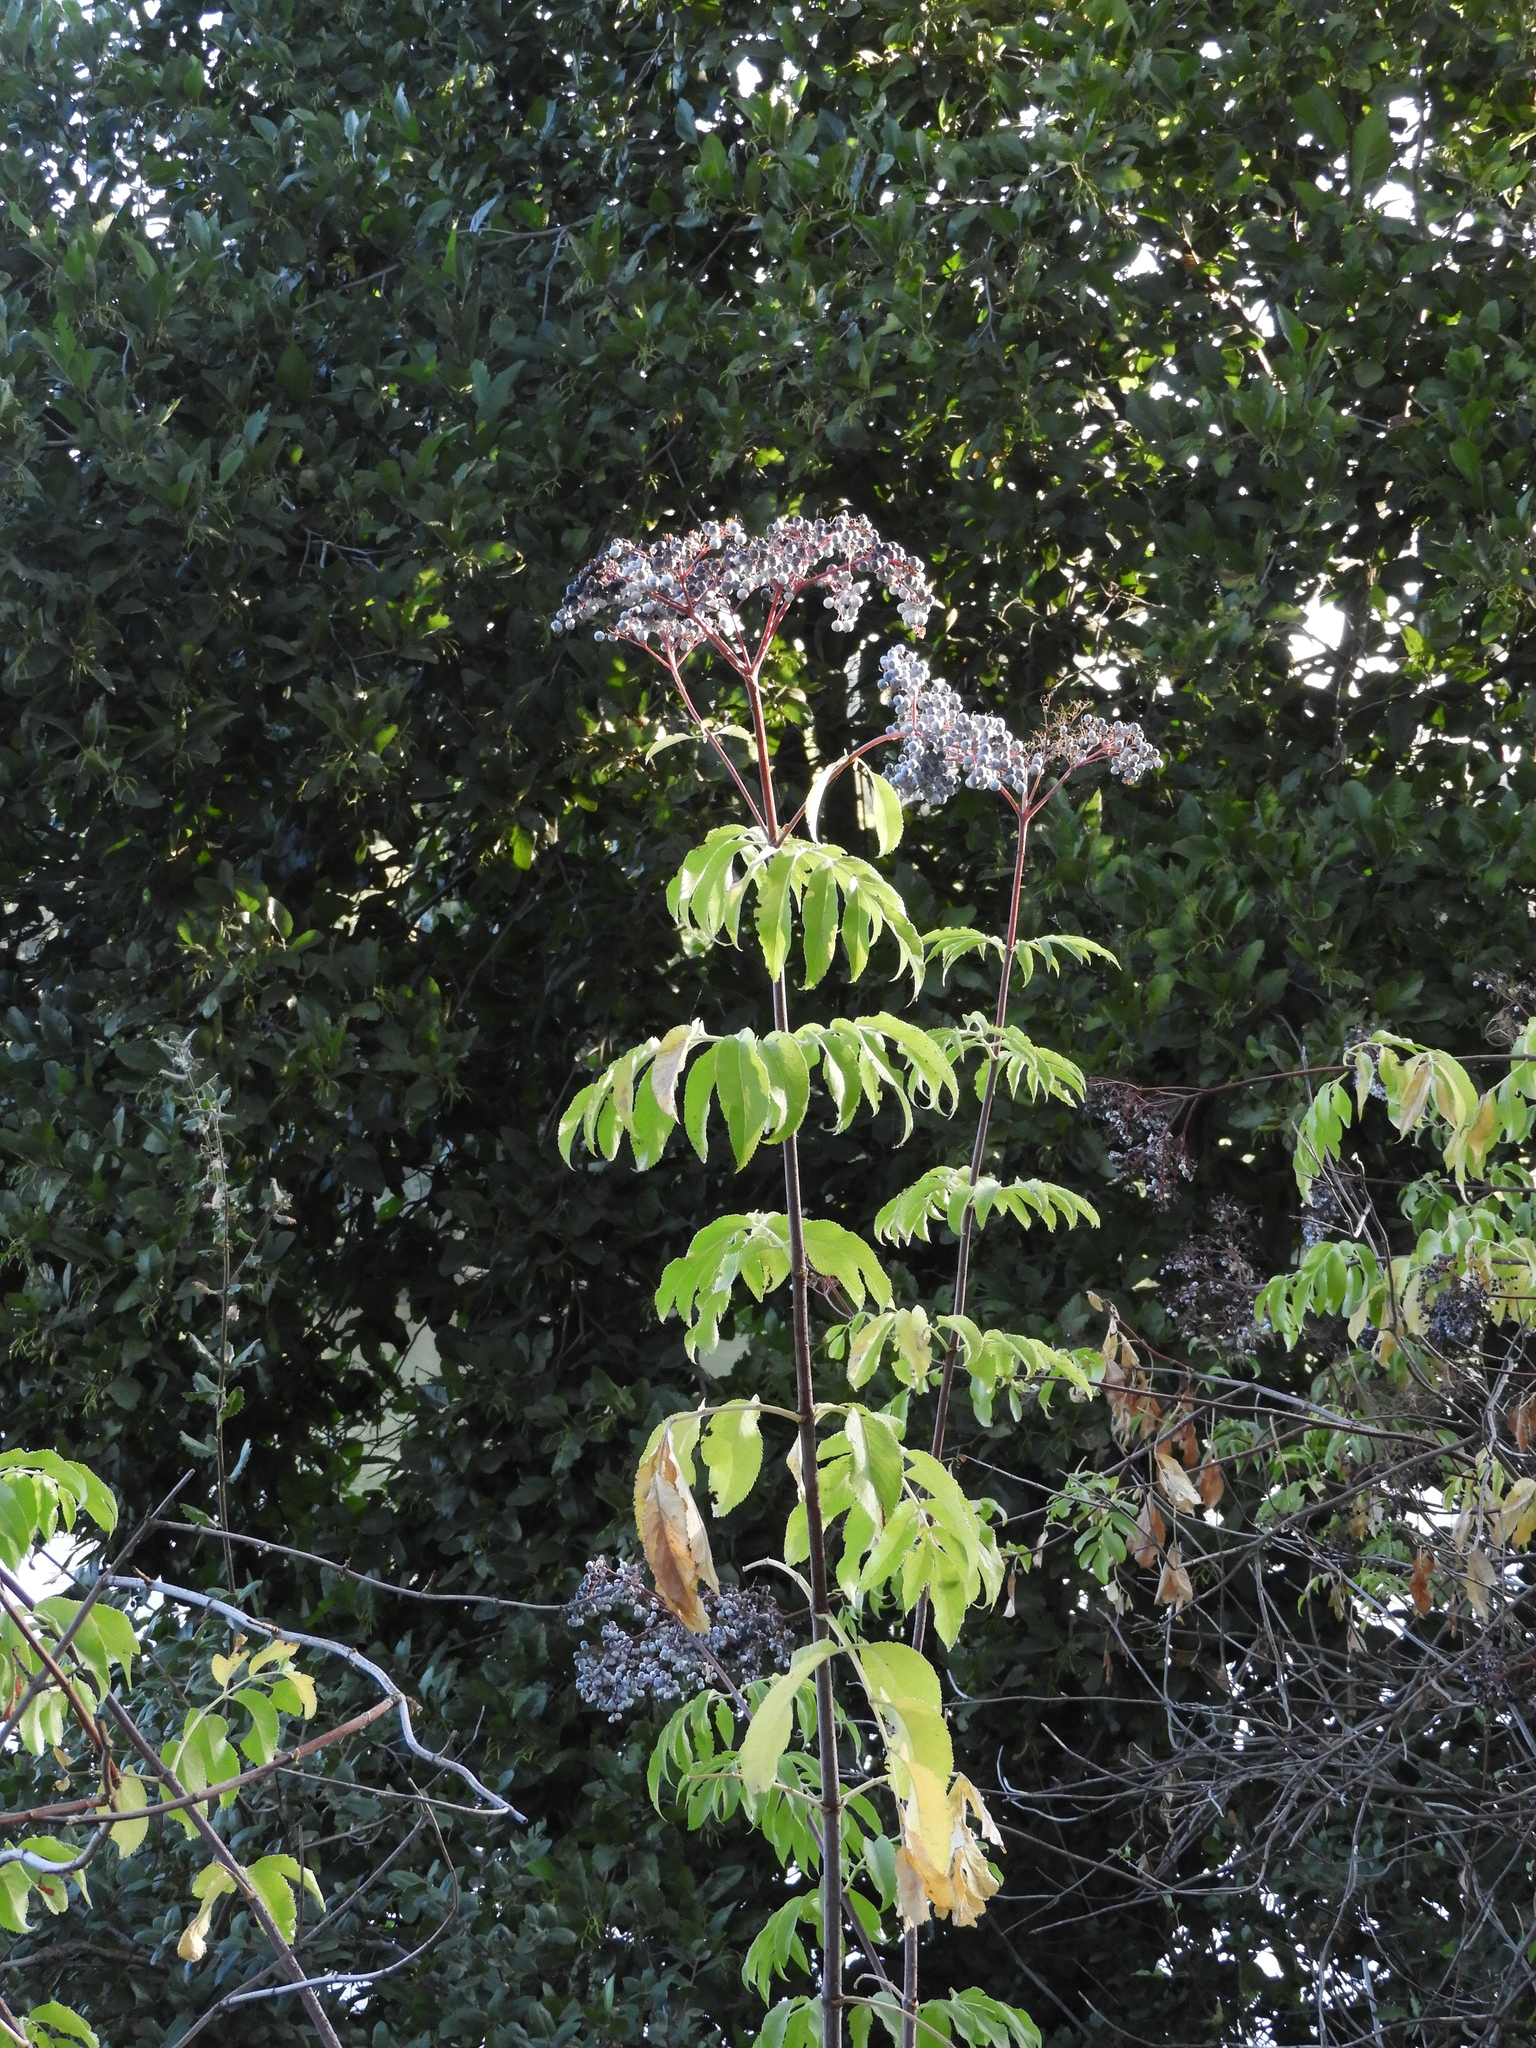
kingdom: Plantae
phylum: Tracheophyta
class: Magnoliopsida
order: Dipsacales
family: Viburnaceae
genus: Sambucus
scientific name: Sambucus cerulea
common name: Blue elder
